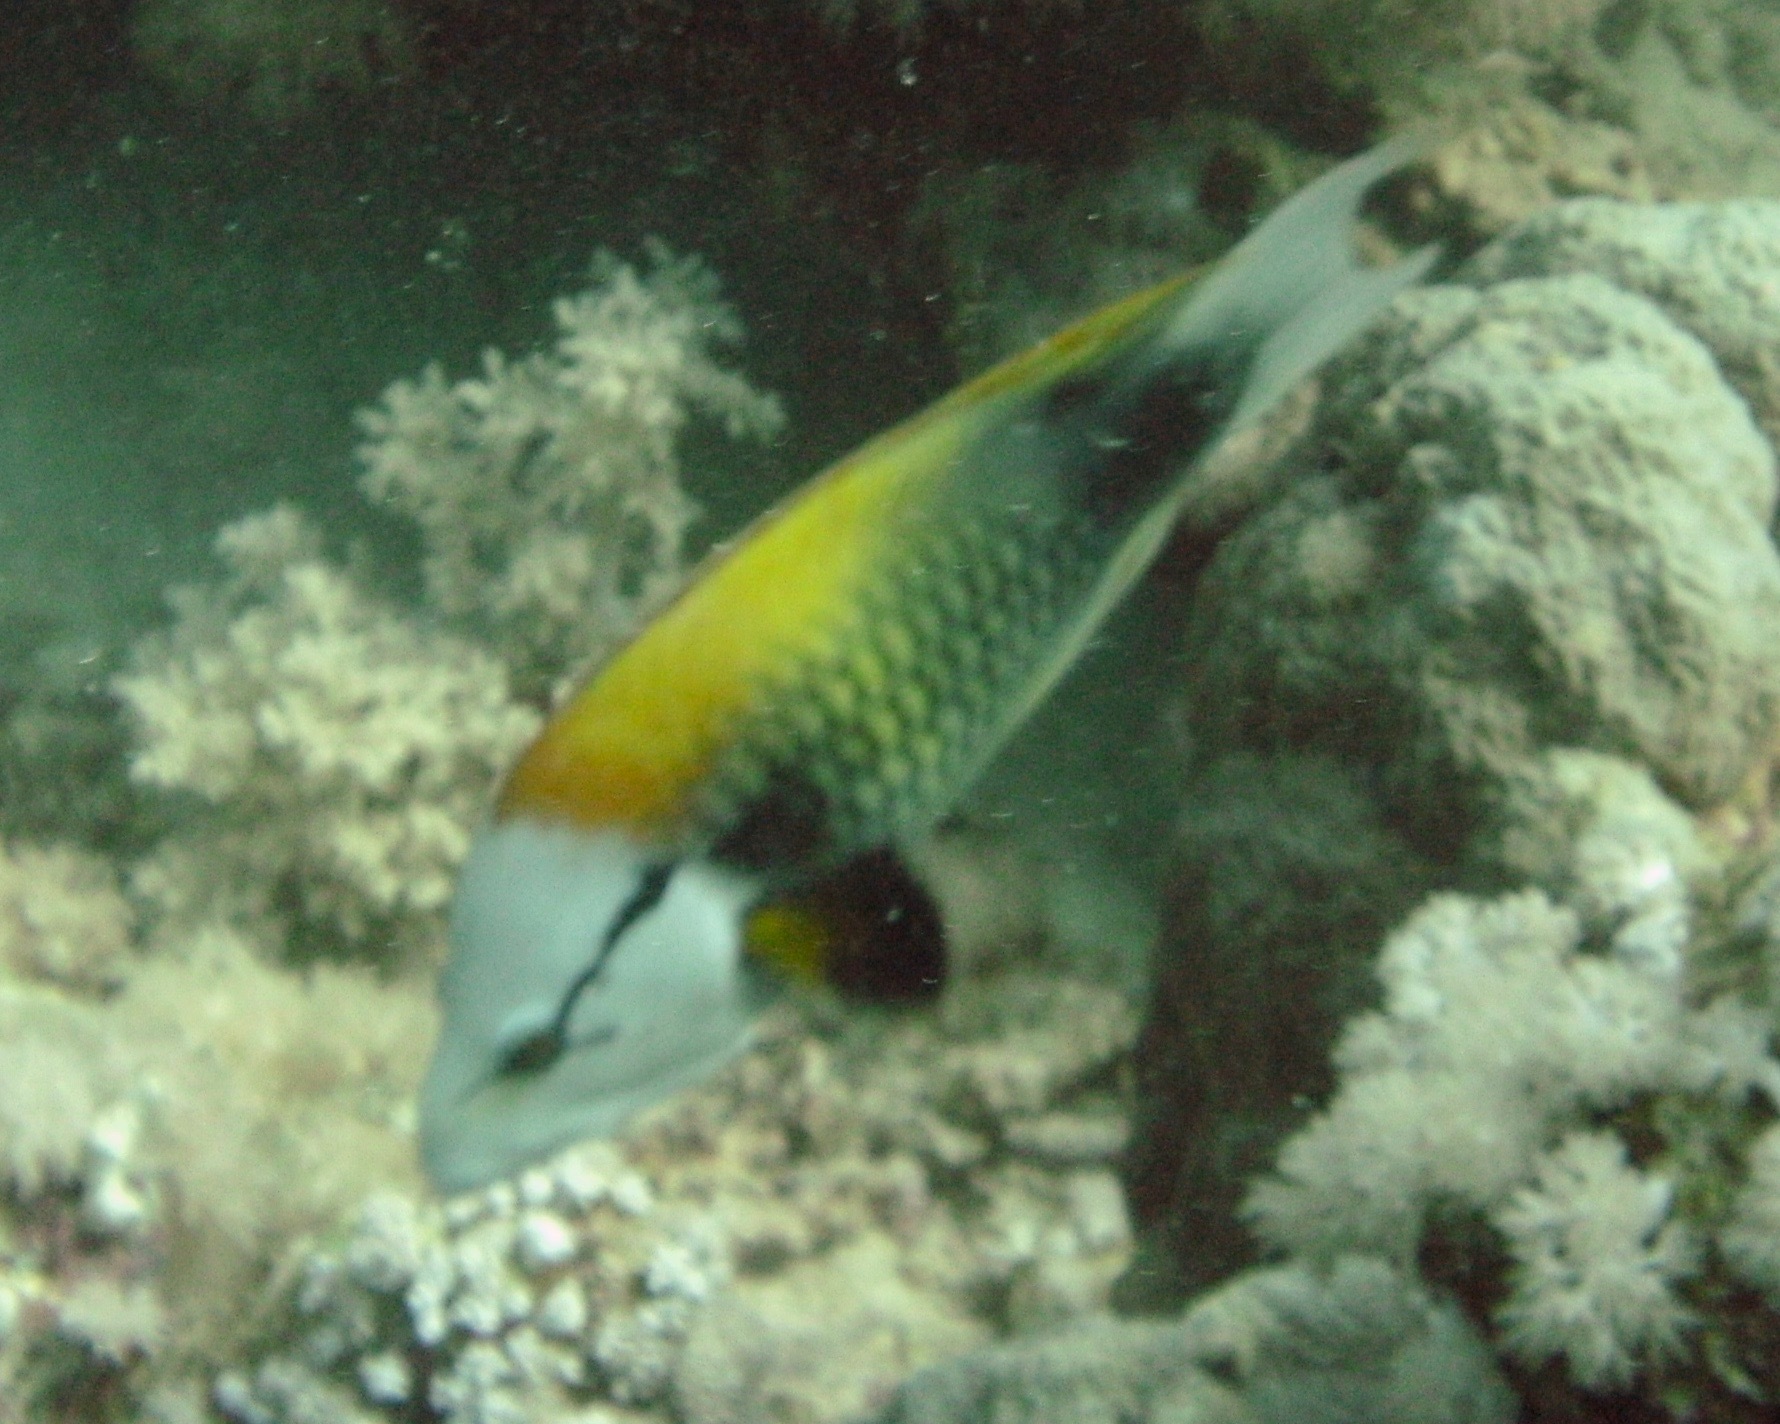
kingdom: Animalia
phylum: Chordata
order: Perciformes
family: Labridae
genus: Epibulus
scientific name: Epibulus insidiator
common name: Slingjaw wrasse
